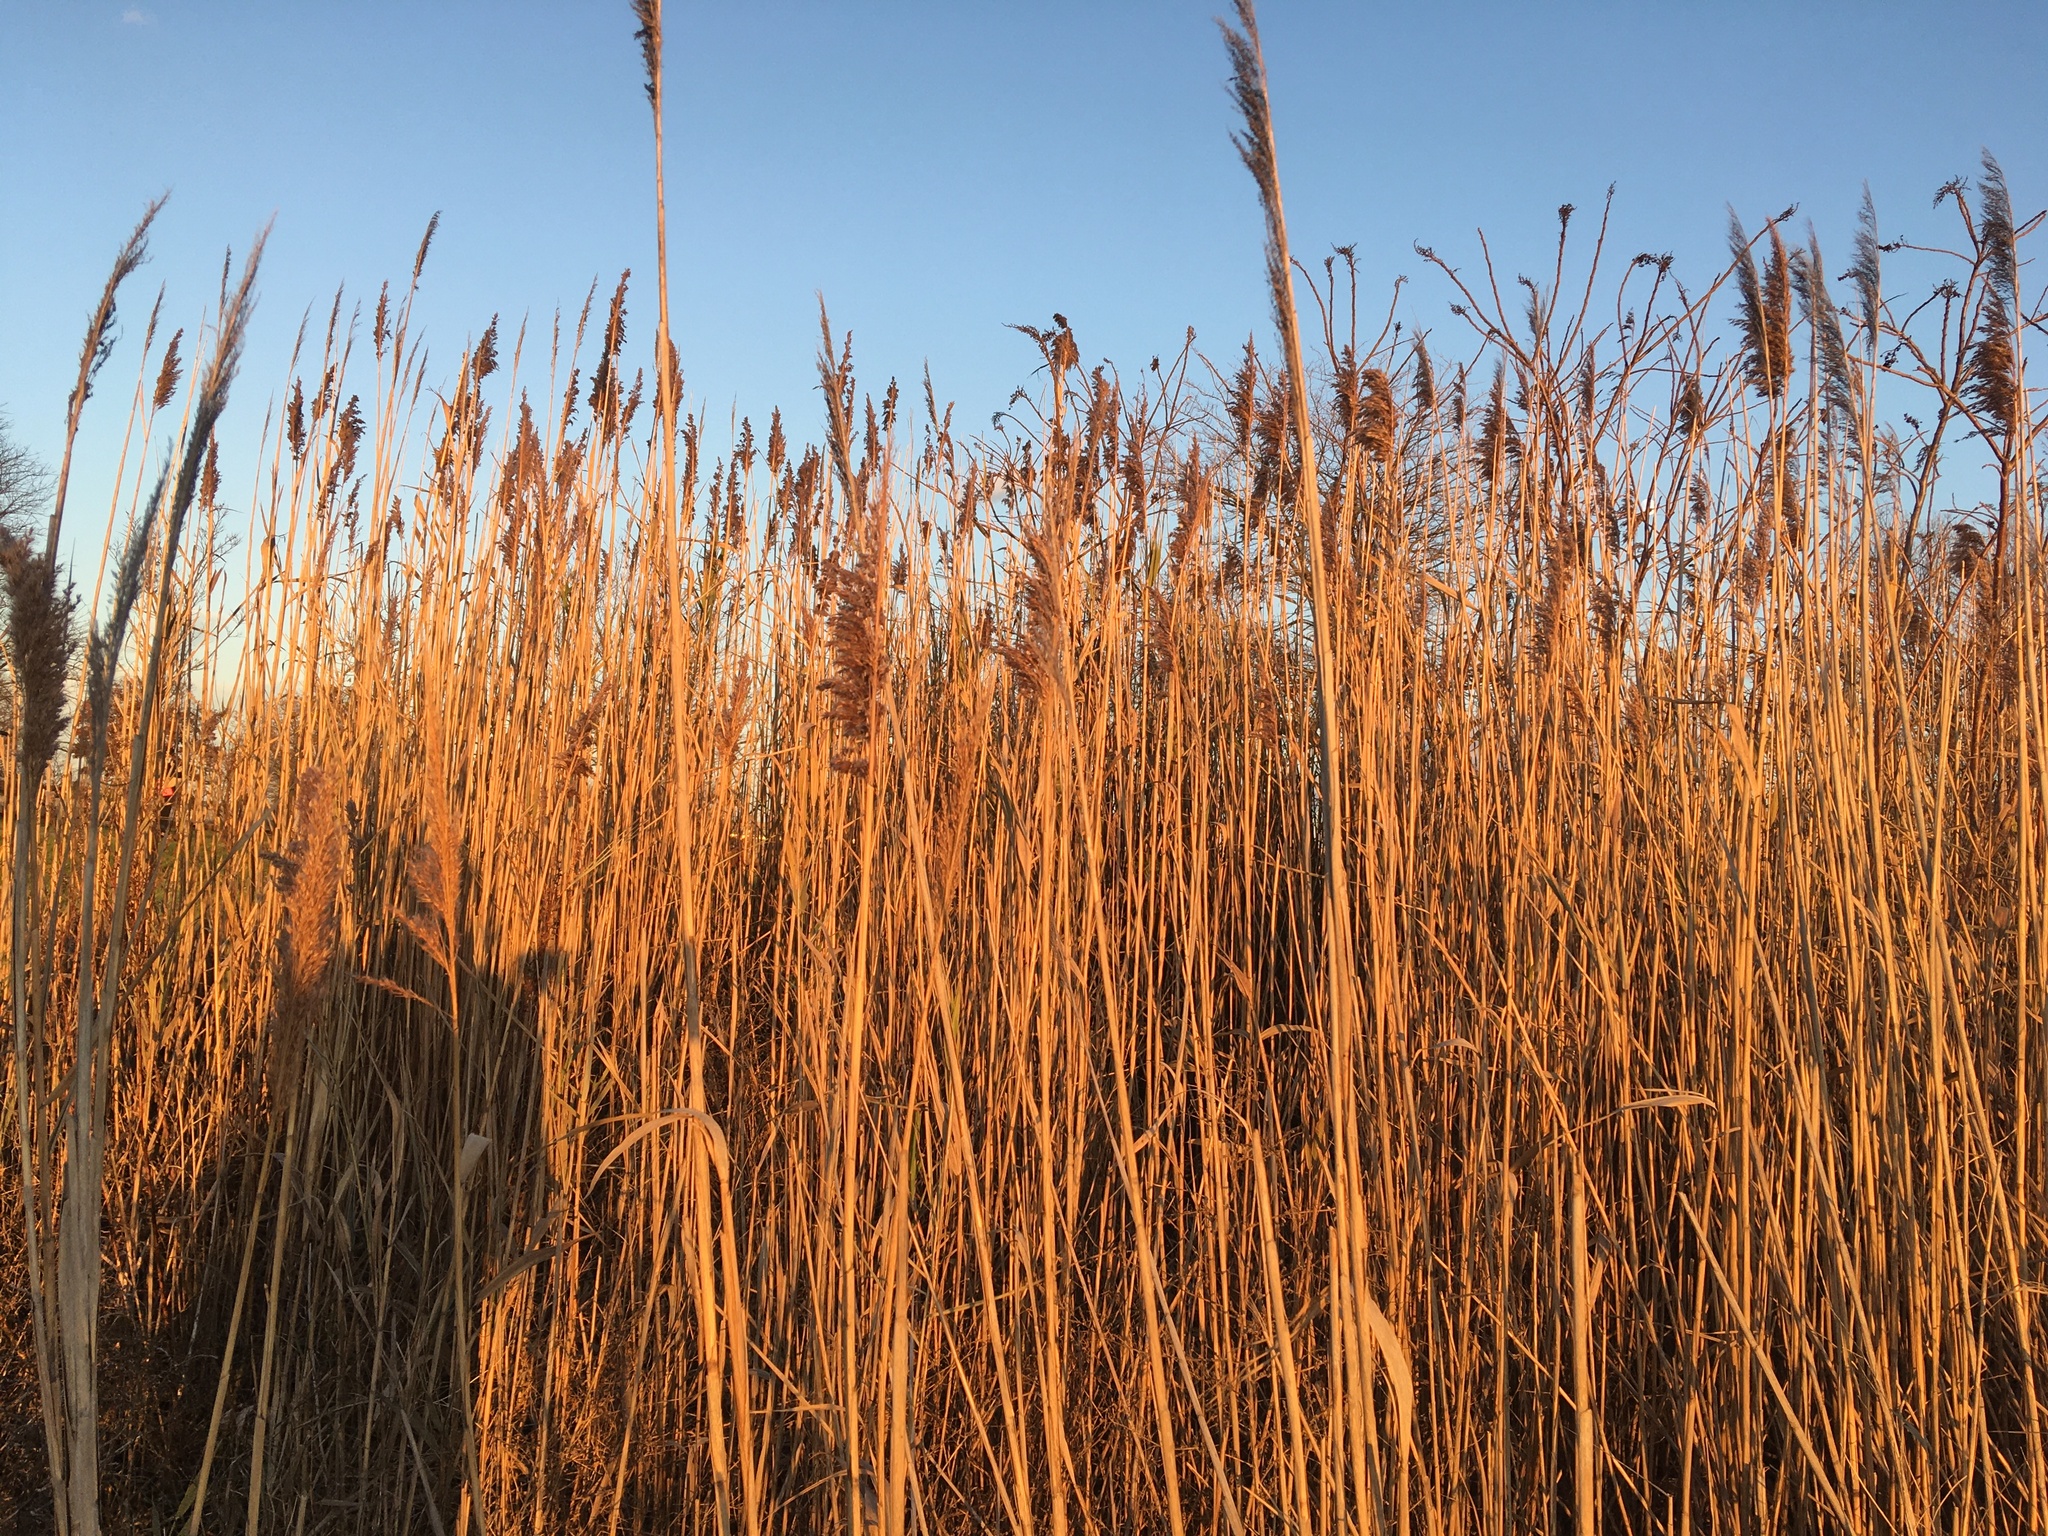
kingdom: Plantae
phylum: Tracheophyta
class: Liliopsida
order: Poales
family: Poaceae
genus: Phragmites
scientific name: Phragmites australis
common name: Common reed
